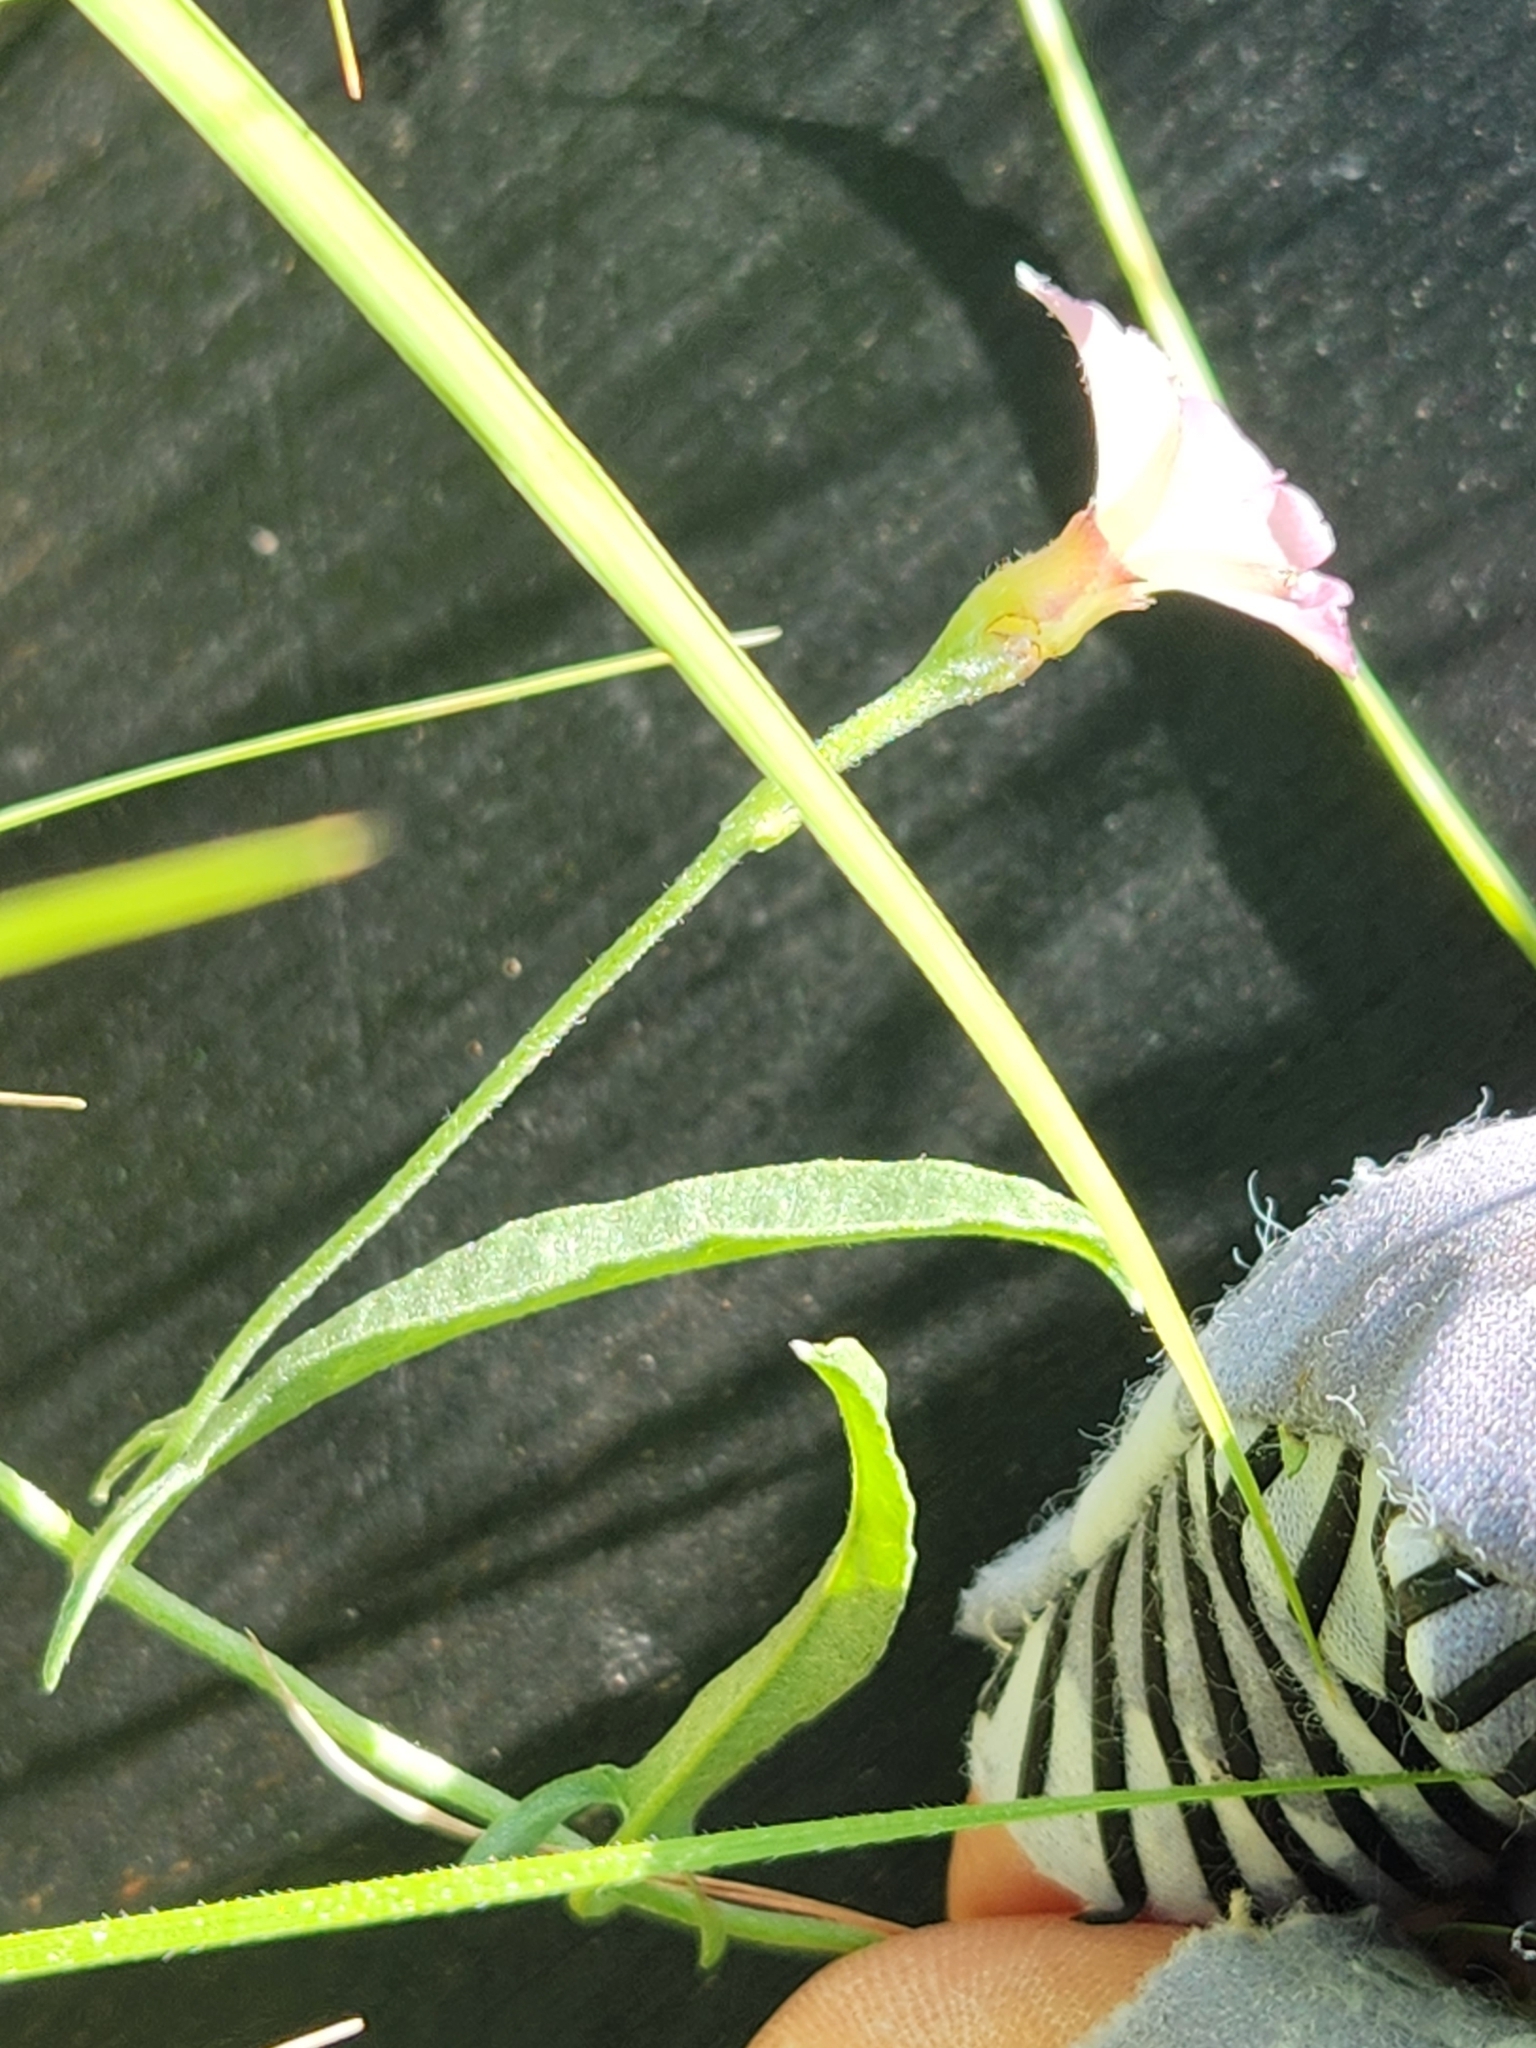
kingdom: Plantae
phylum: Tracheophyta
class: Magnoliopsida
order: Solanales
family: Convolvulaceae
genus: Convolvulus
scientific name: Convolvulus equitans
